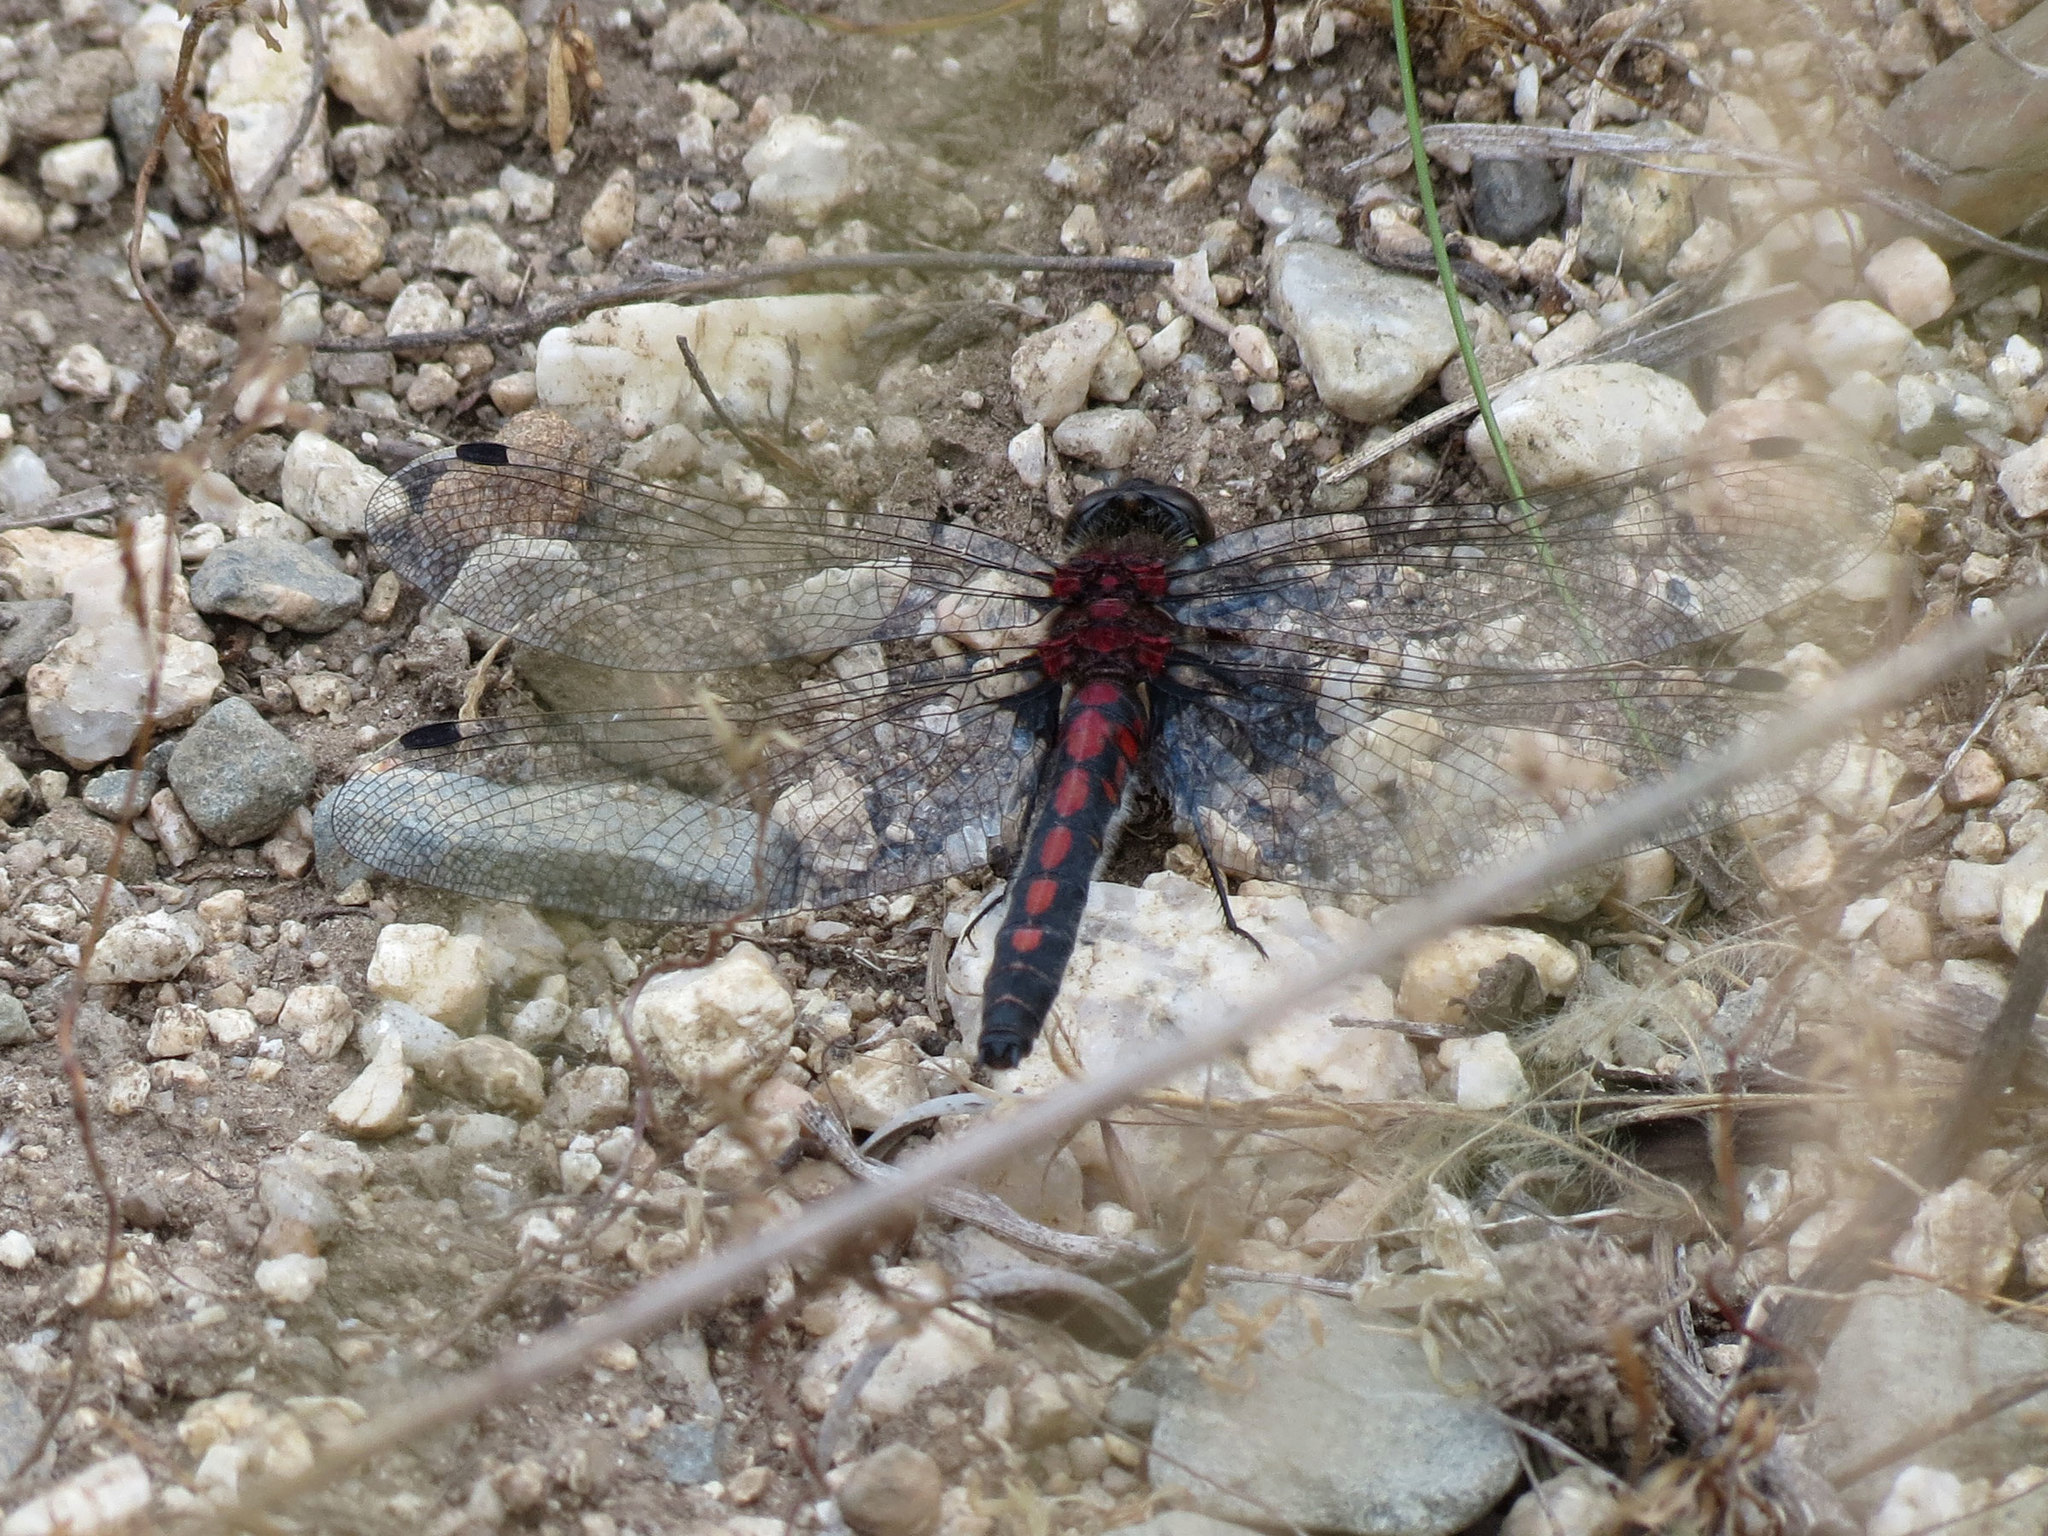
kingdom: Animalia
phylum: Arthropoda
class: Insecta
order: Odonata
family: Libellulidae
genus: Leucorrhinia
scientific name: Leucorrhinia hudsonica
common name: Hudsonian whiteface
